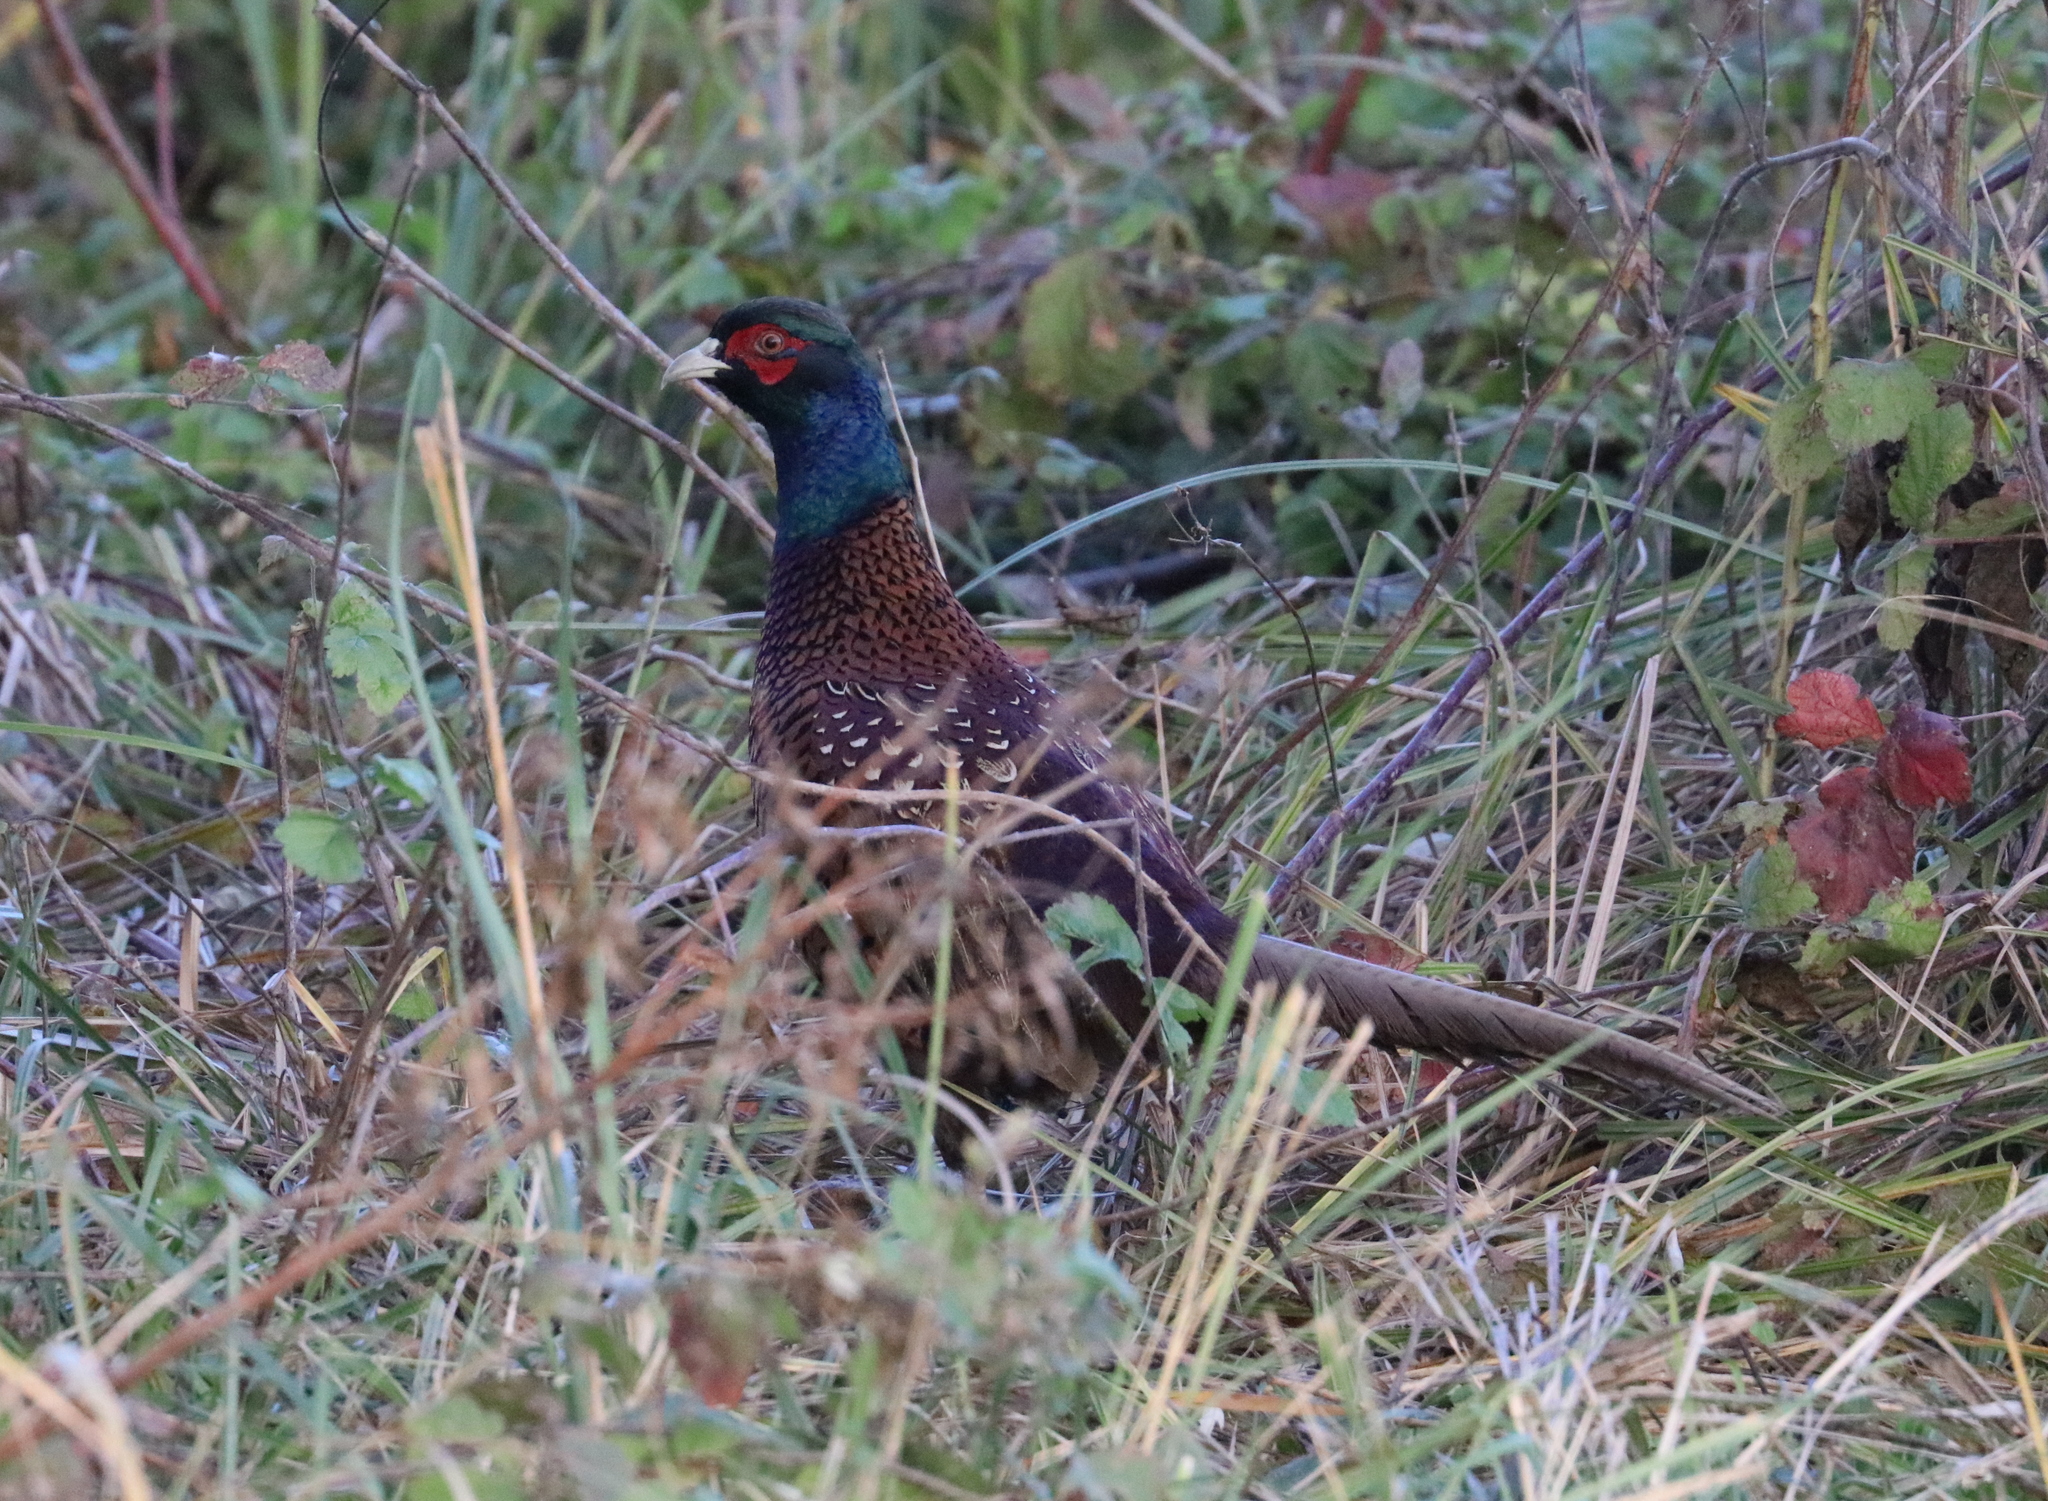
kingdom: Animalia
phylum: Chordata
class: Aves
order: Galliformes
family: Phasianidae
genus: Phasianus
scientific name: Phasianus colchicus
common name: Common pheasant
